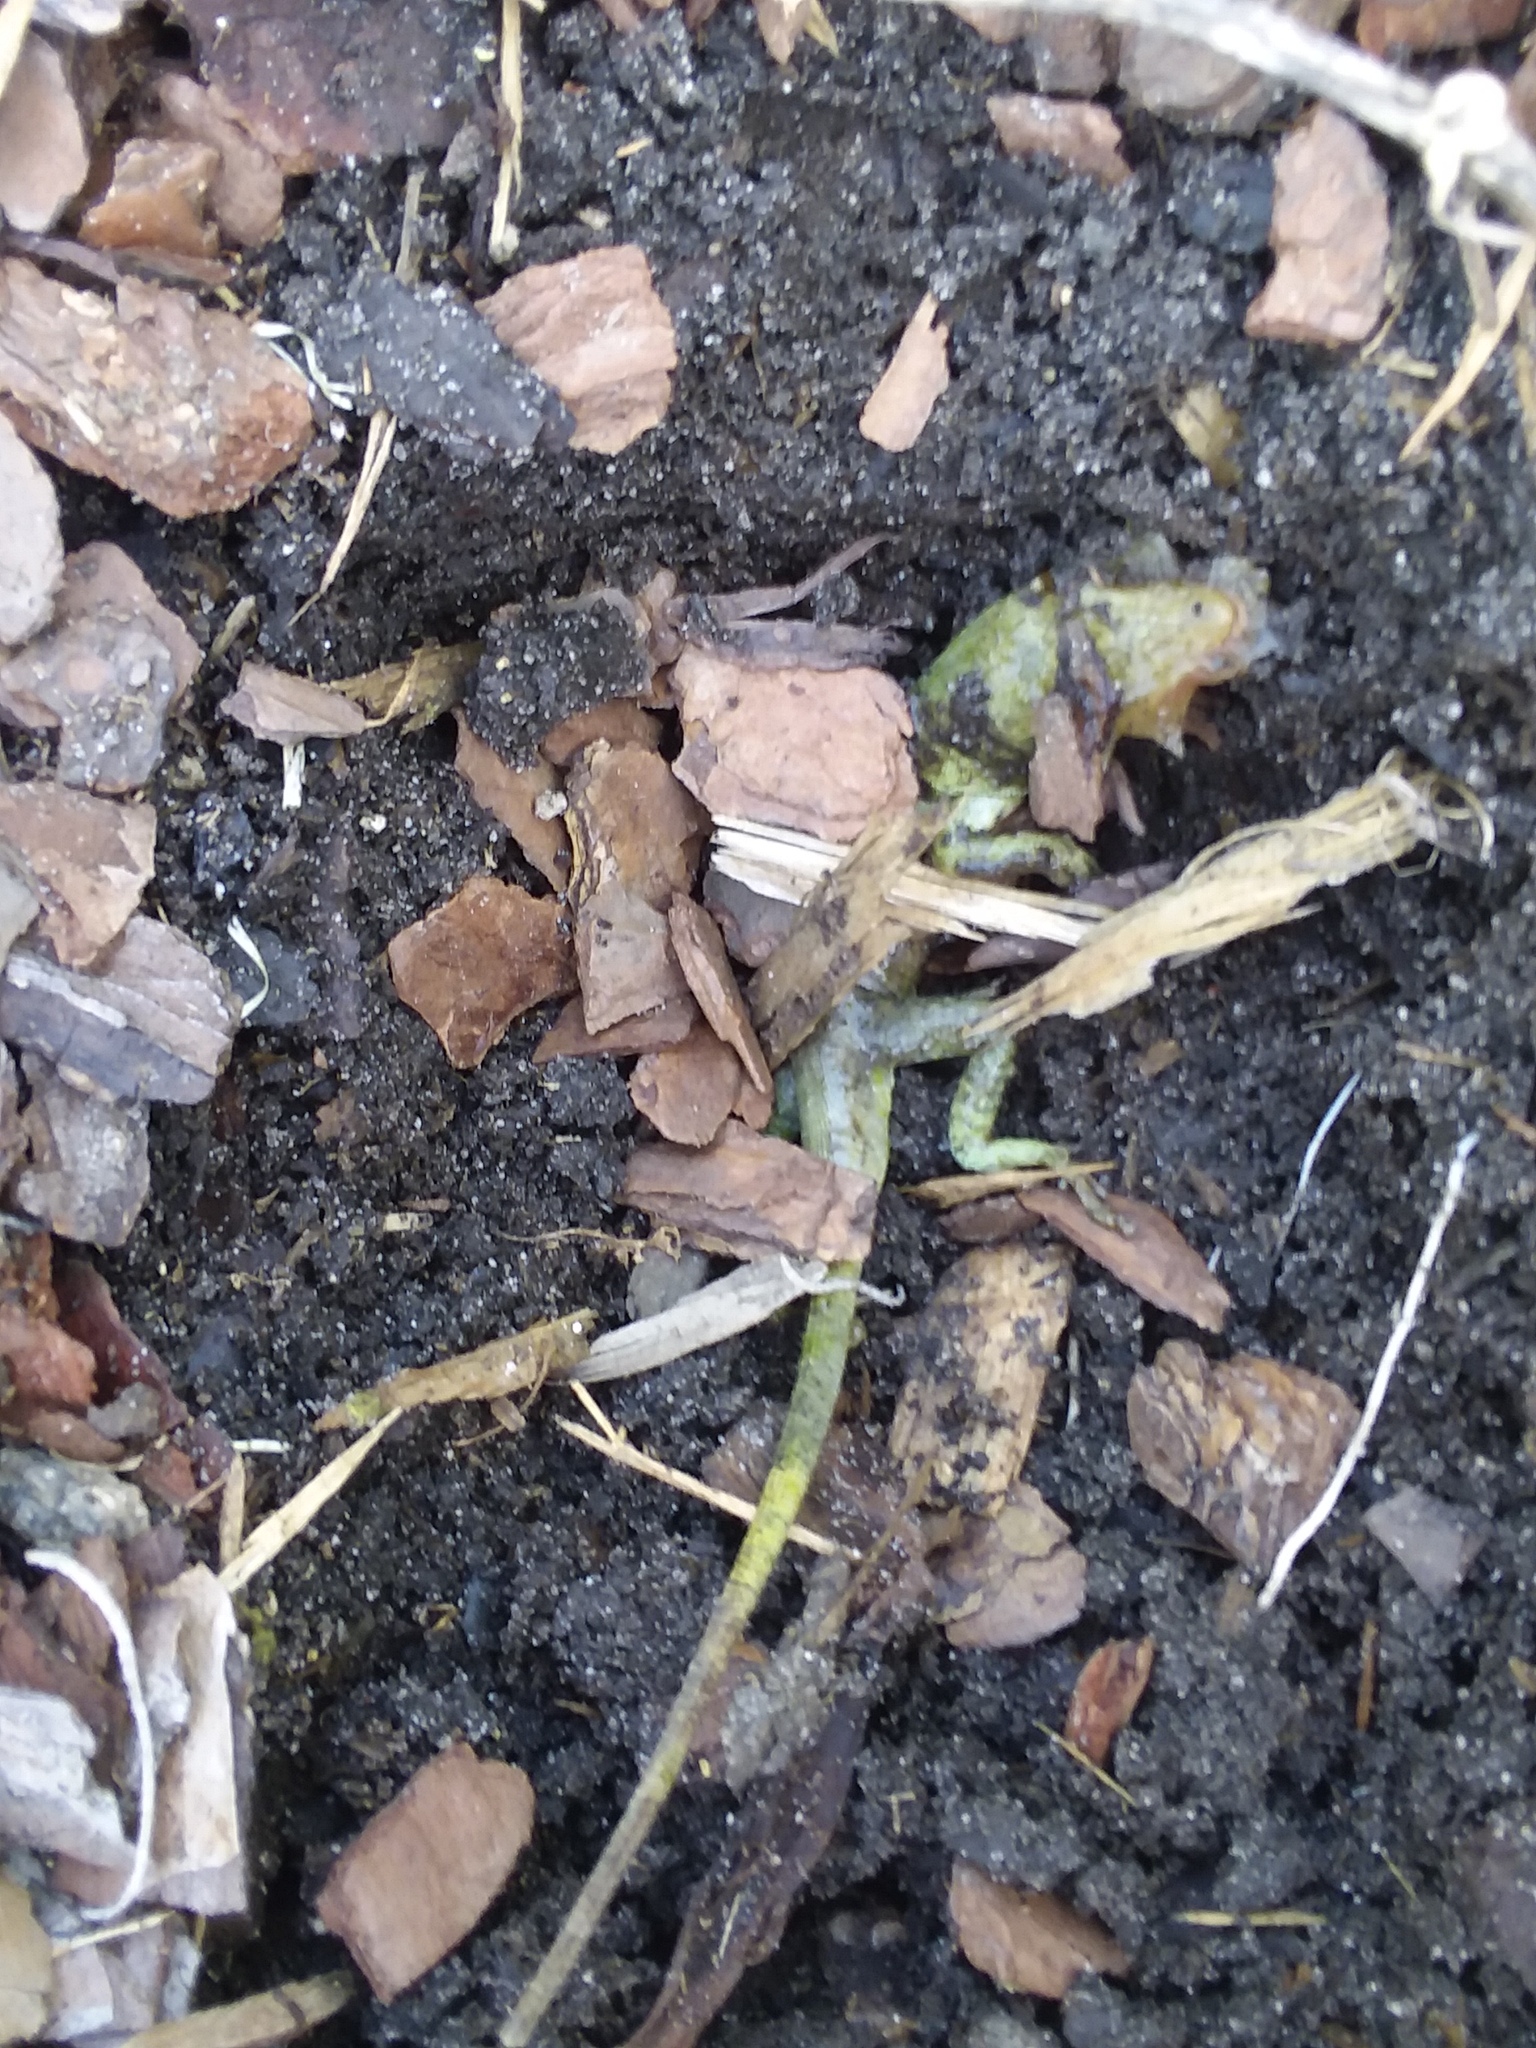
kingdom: Animalia
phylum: Chordata
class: Squamata
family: Dactyloidae
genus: Anolis
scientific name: Anolis carolinensis
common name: Green anole
